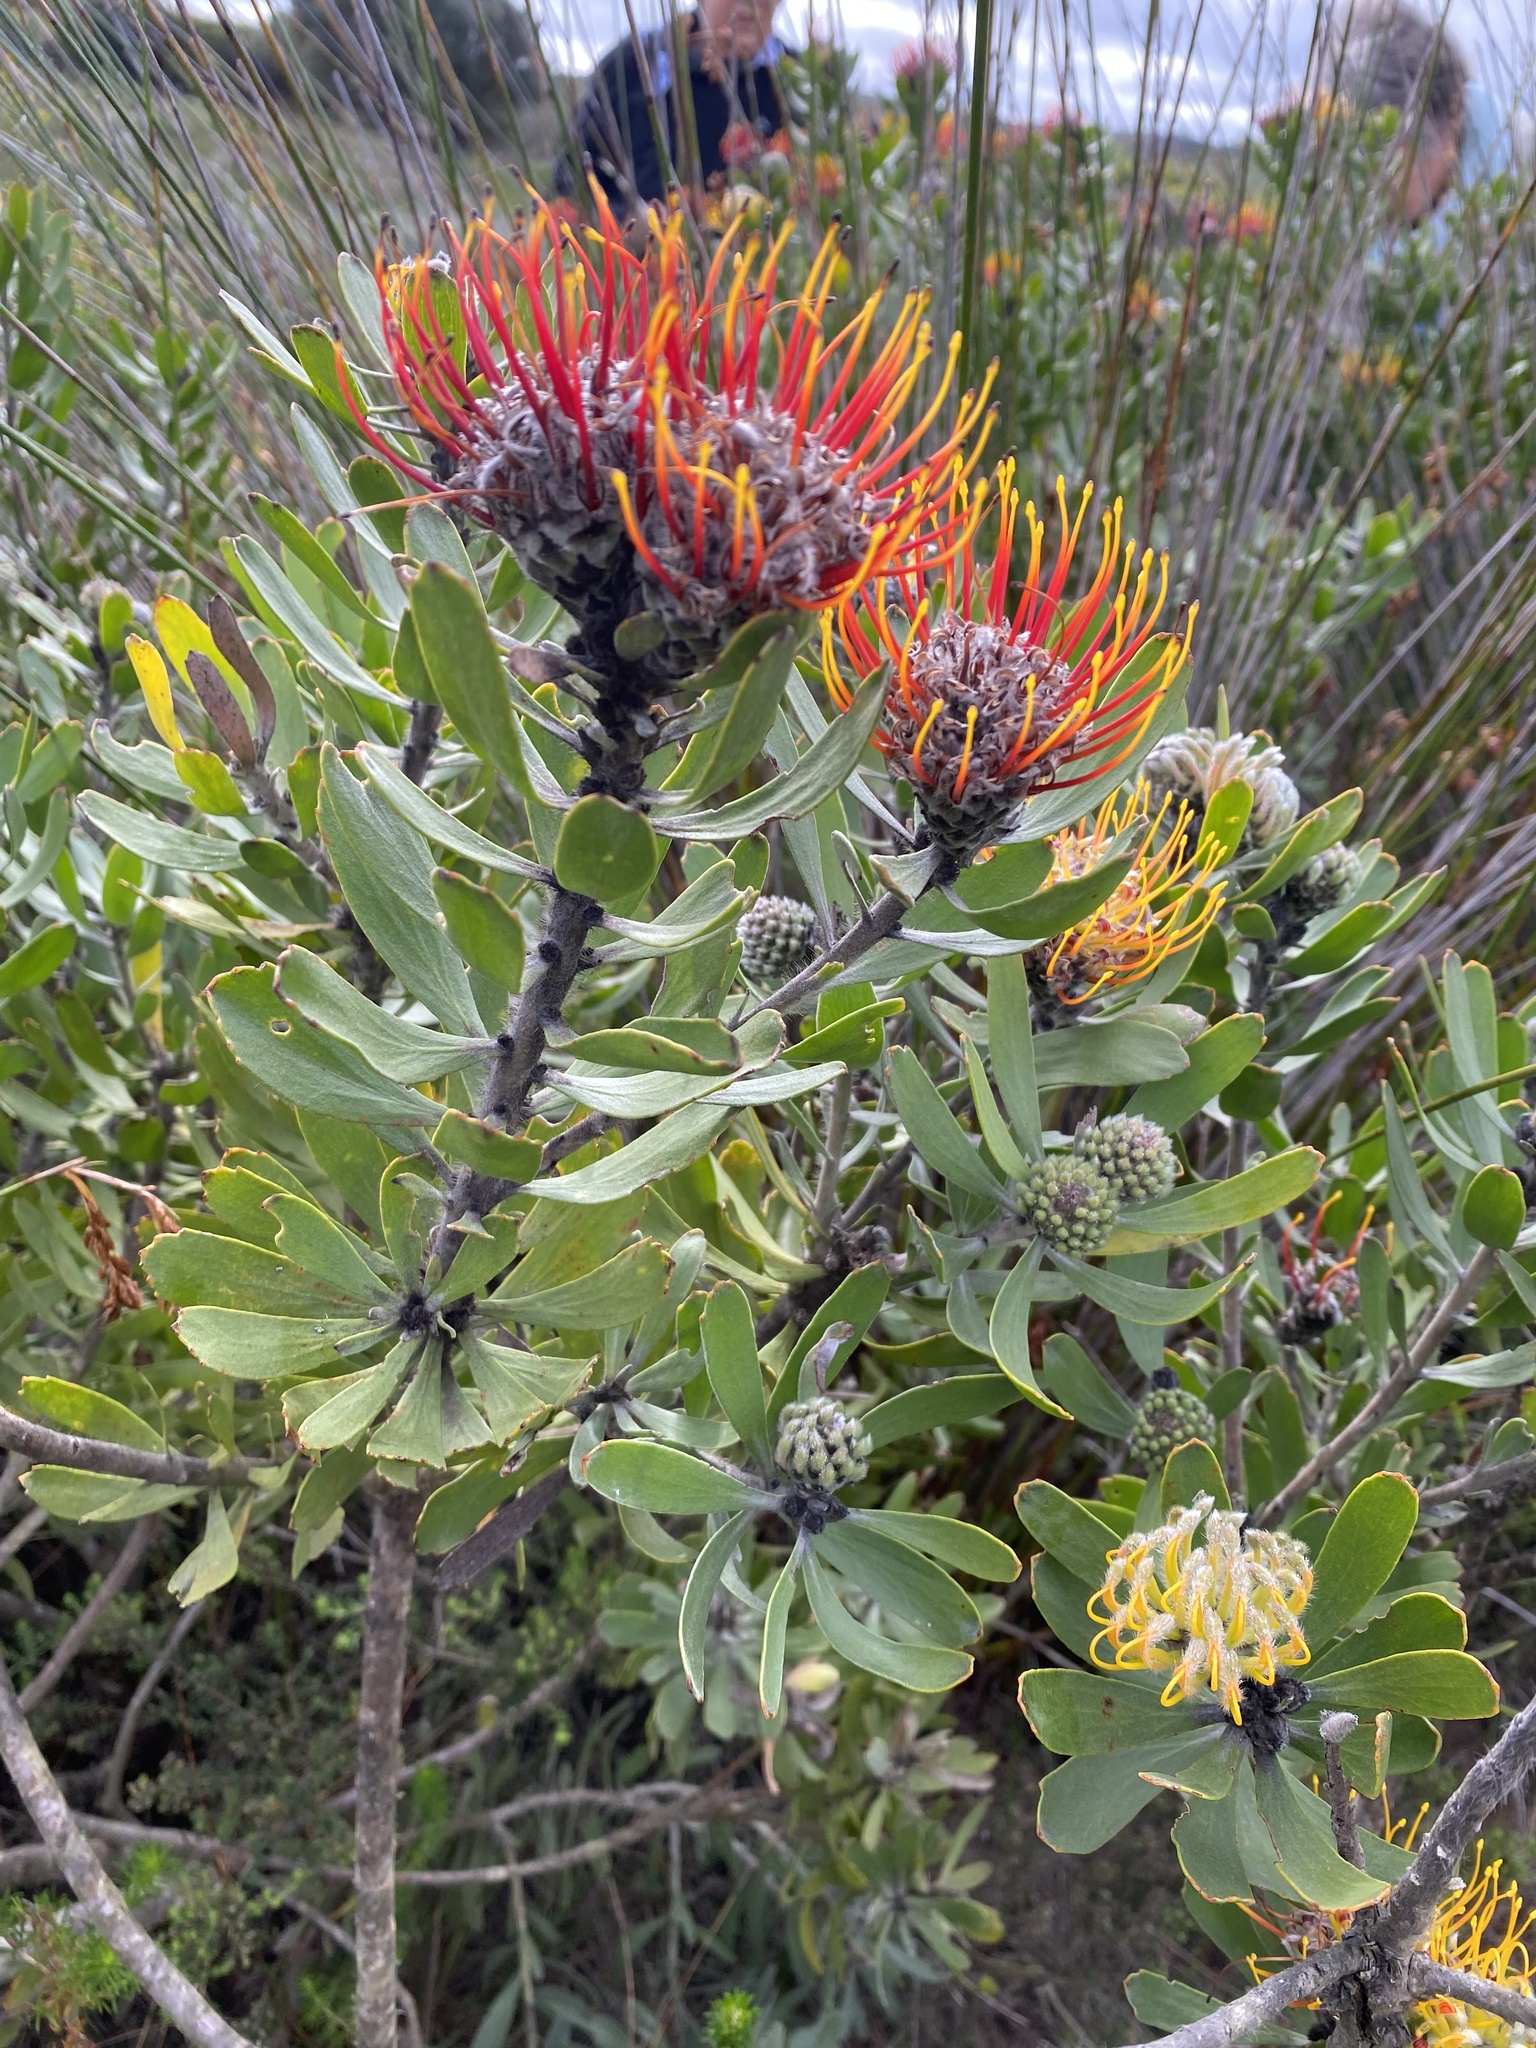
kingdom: Plantae
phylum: Tracheophyta
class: Magnoliopsida
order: Proteales
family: Proteaceae
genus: Leucospermum
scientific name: Leucospermum praecox
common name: Mossel bay pincushion
